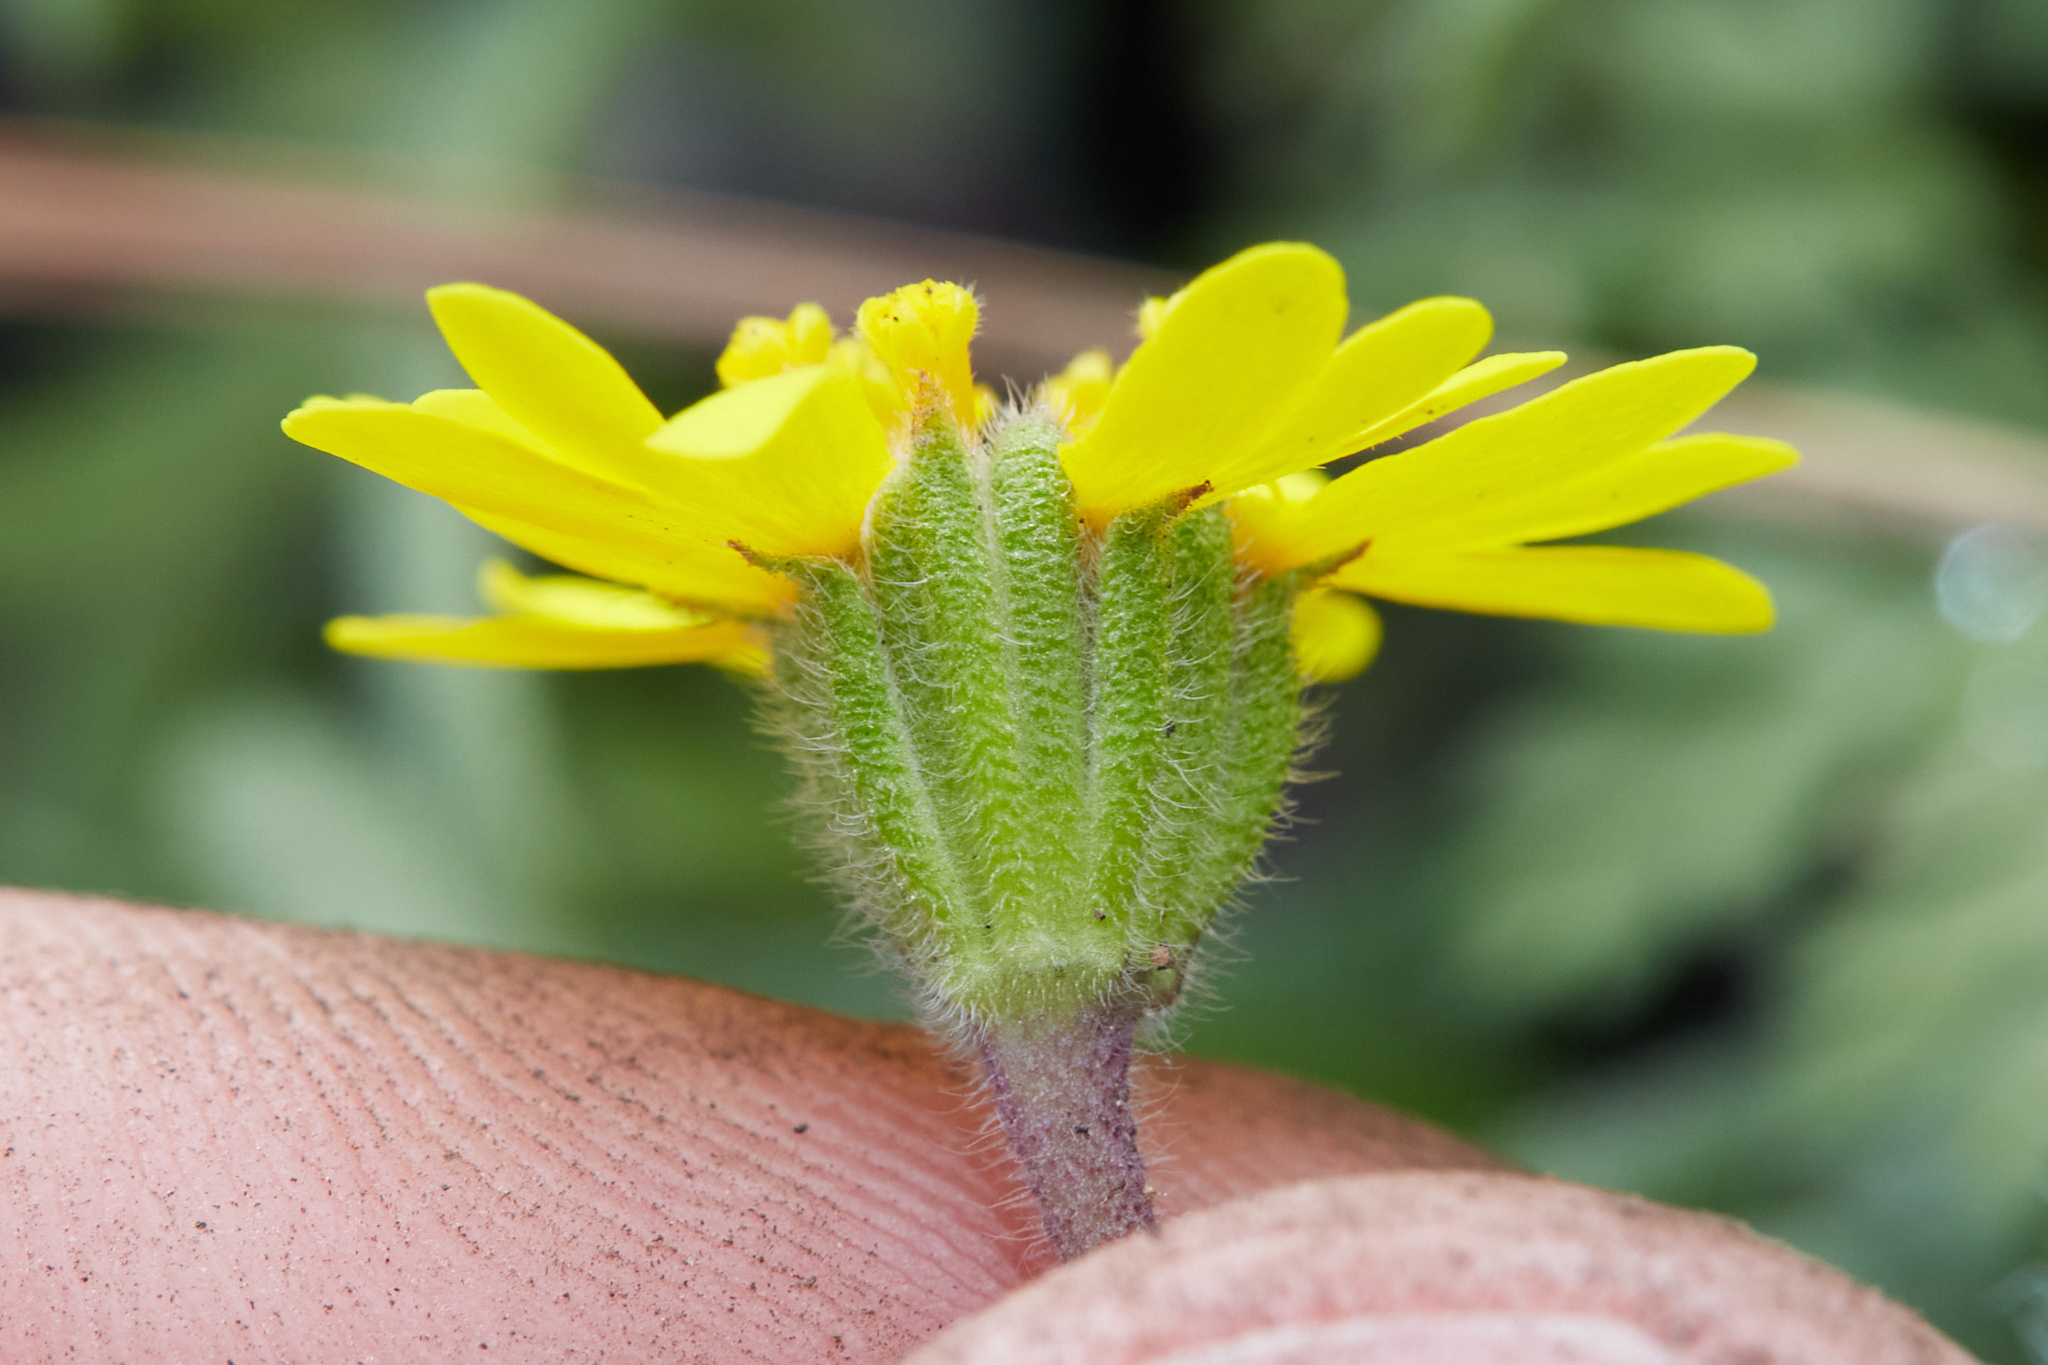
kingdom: Plantae
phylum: Tracheophyta
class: Magnoliopsida
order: Asterales
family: Asteraceae
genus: Harmonia
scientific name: Harmonia nutans
